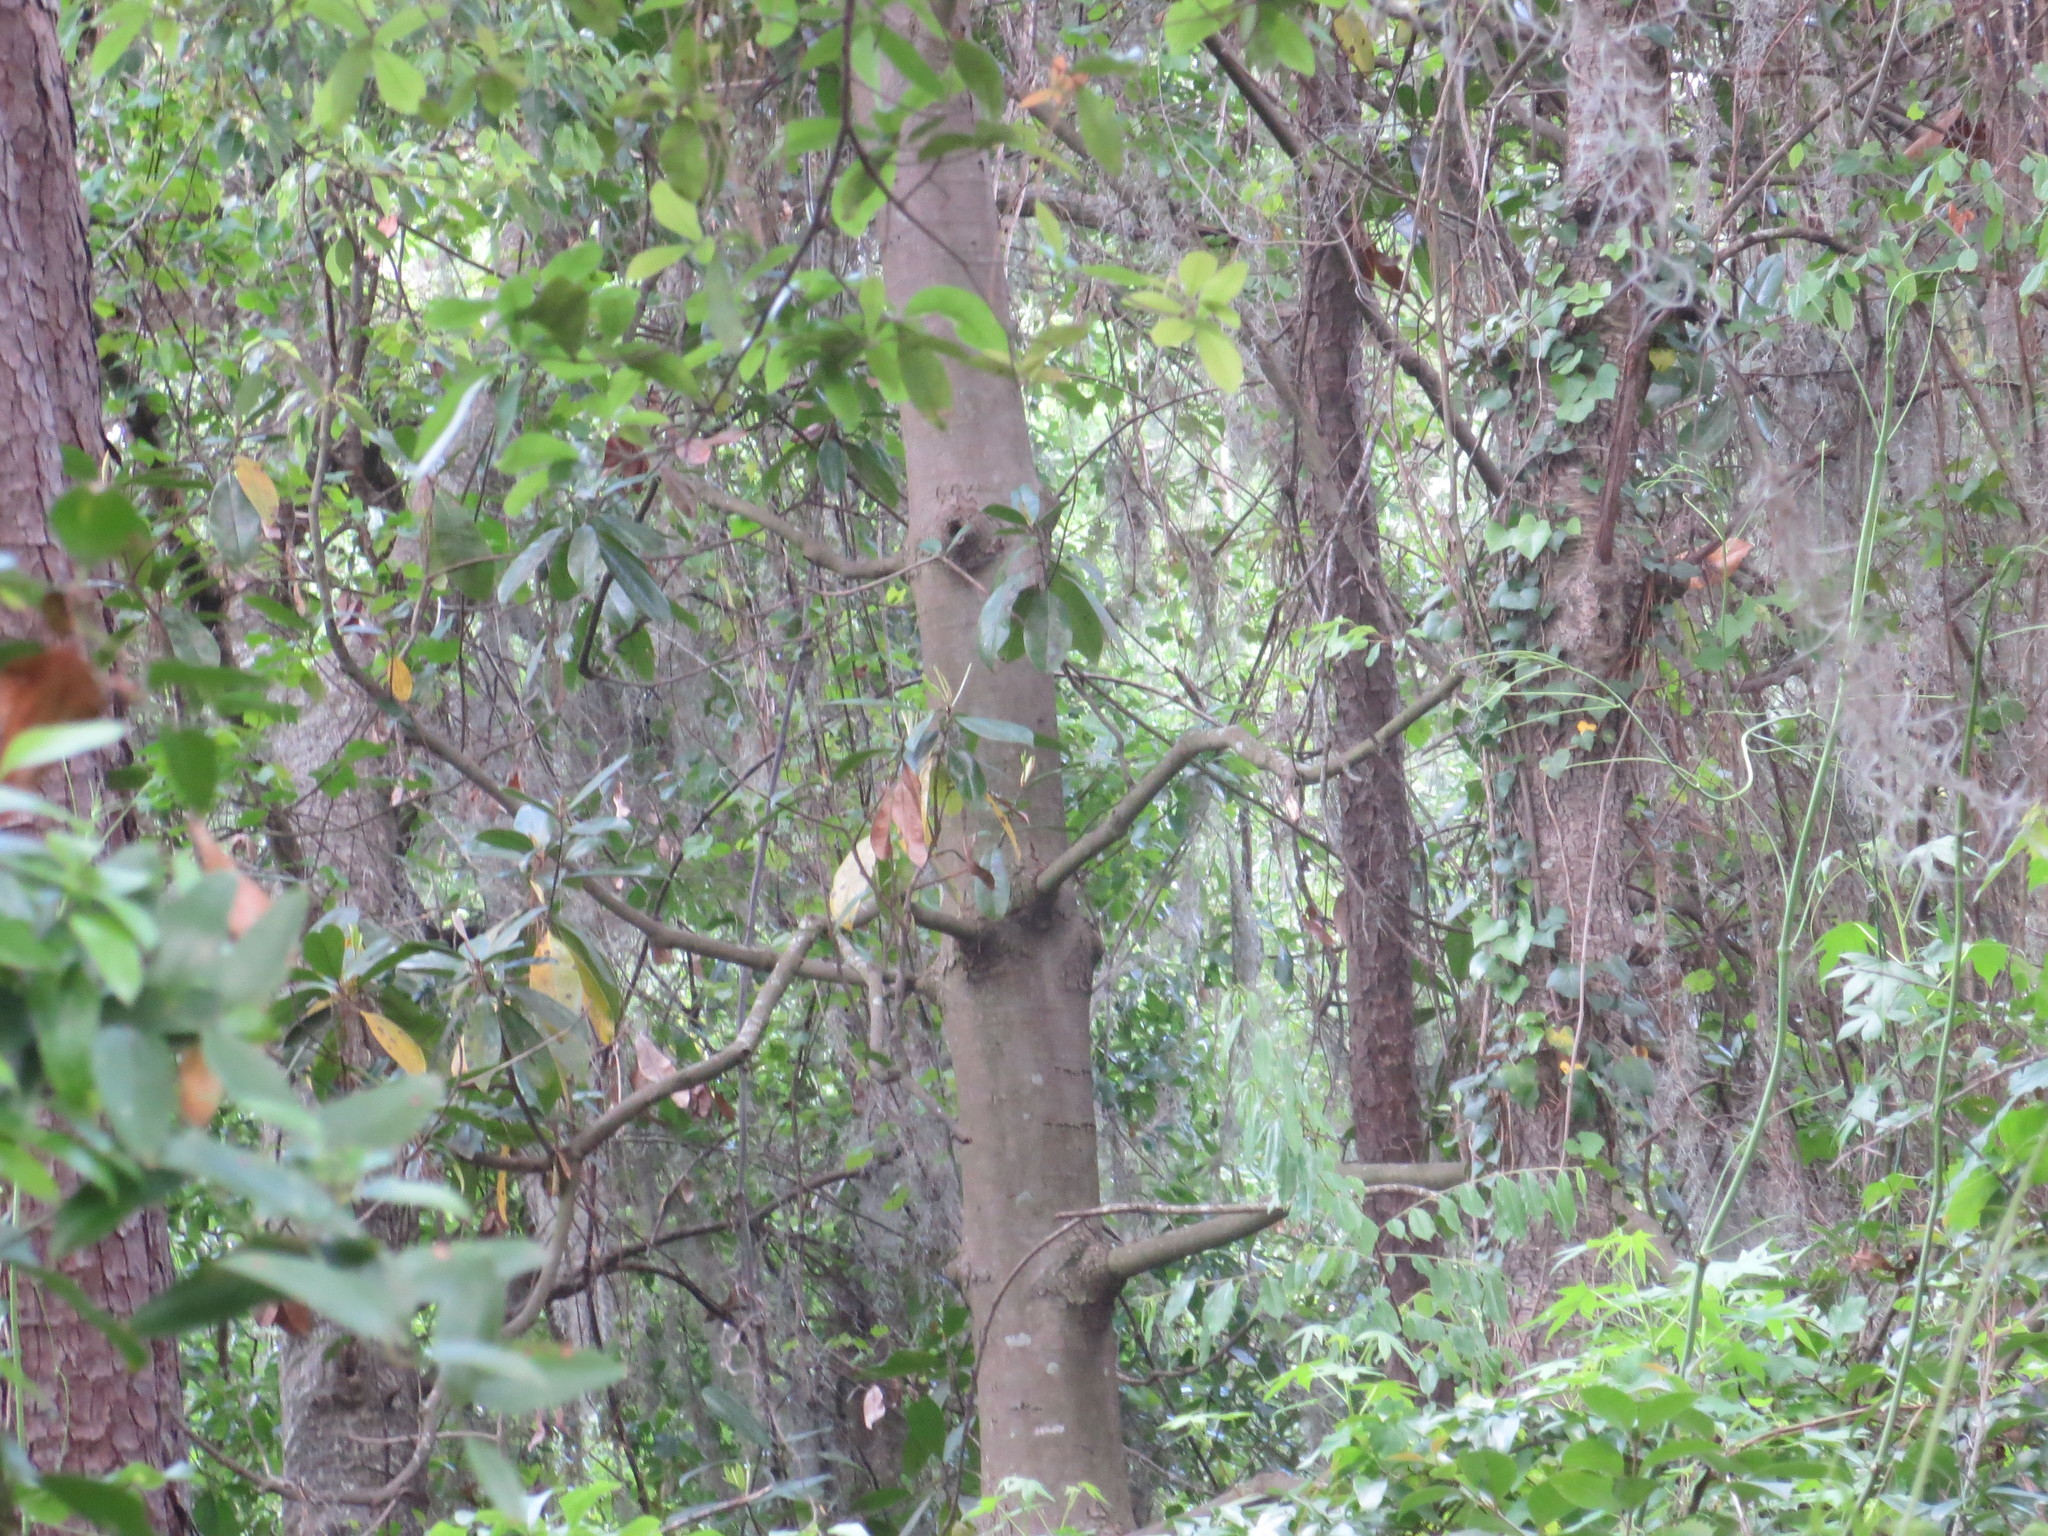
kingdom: Plantae
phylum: Tracheophyta
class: Magnoliopsida
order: Magnoliales
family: Magnoliaceae
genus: Magnolia
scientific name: Magnolia grandiflora
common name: Southern magnolia
